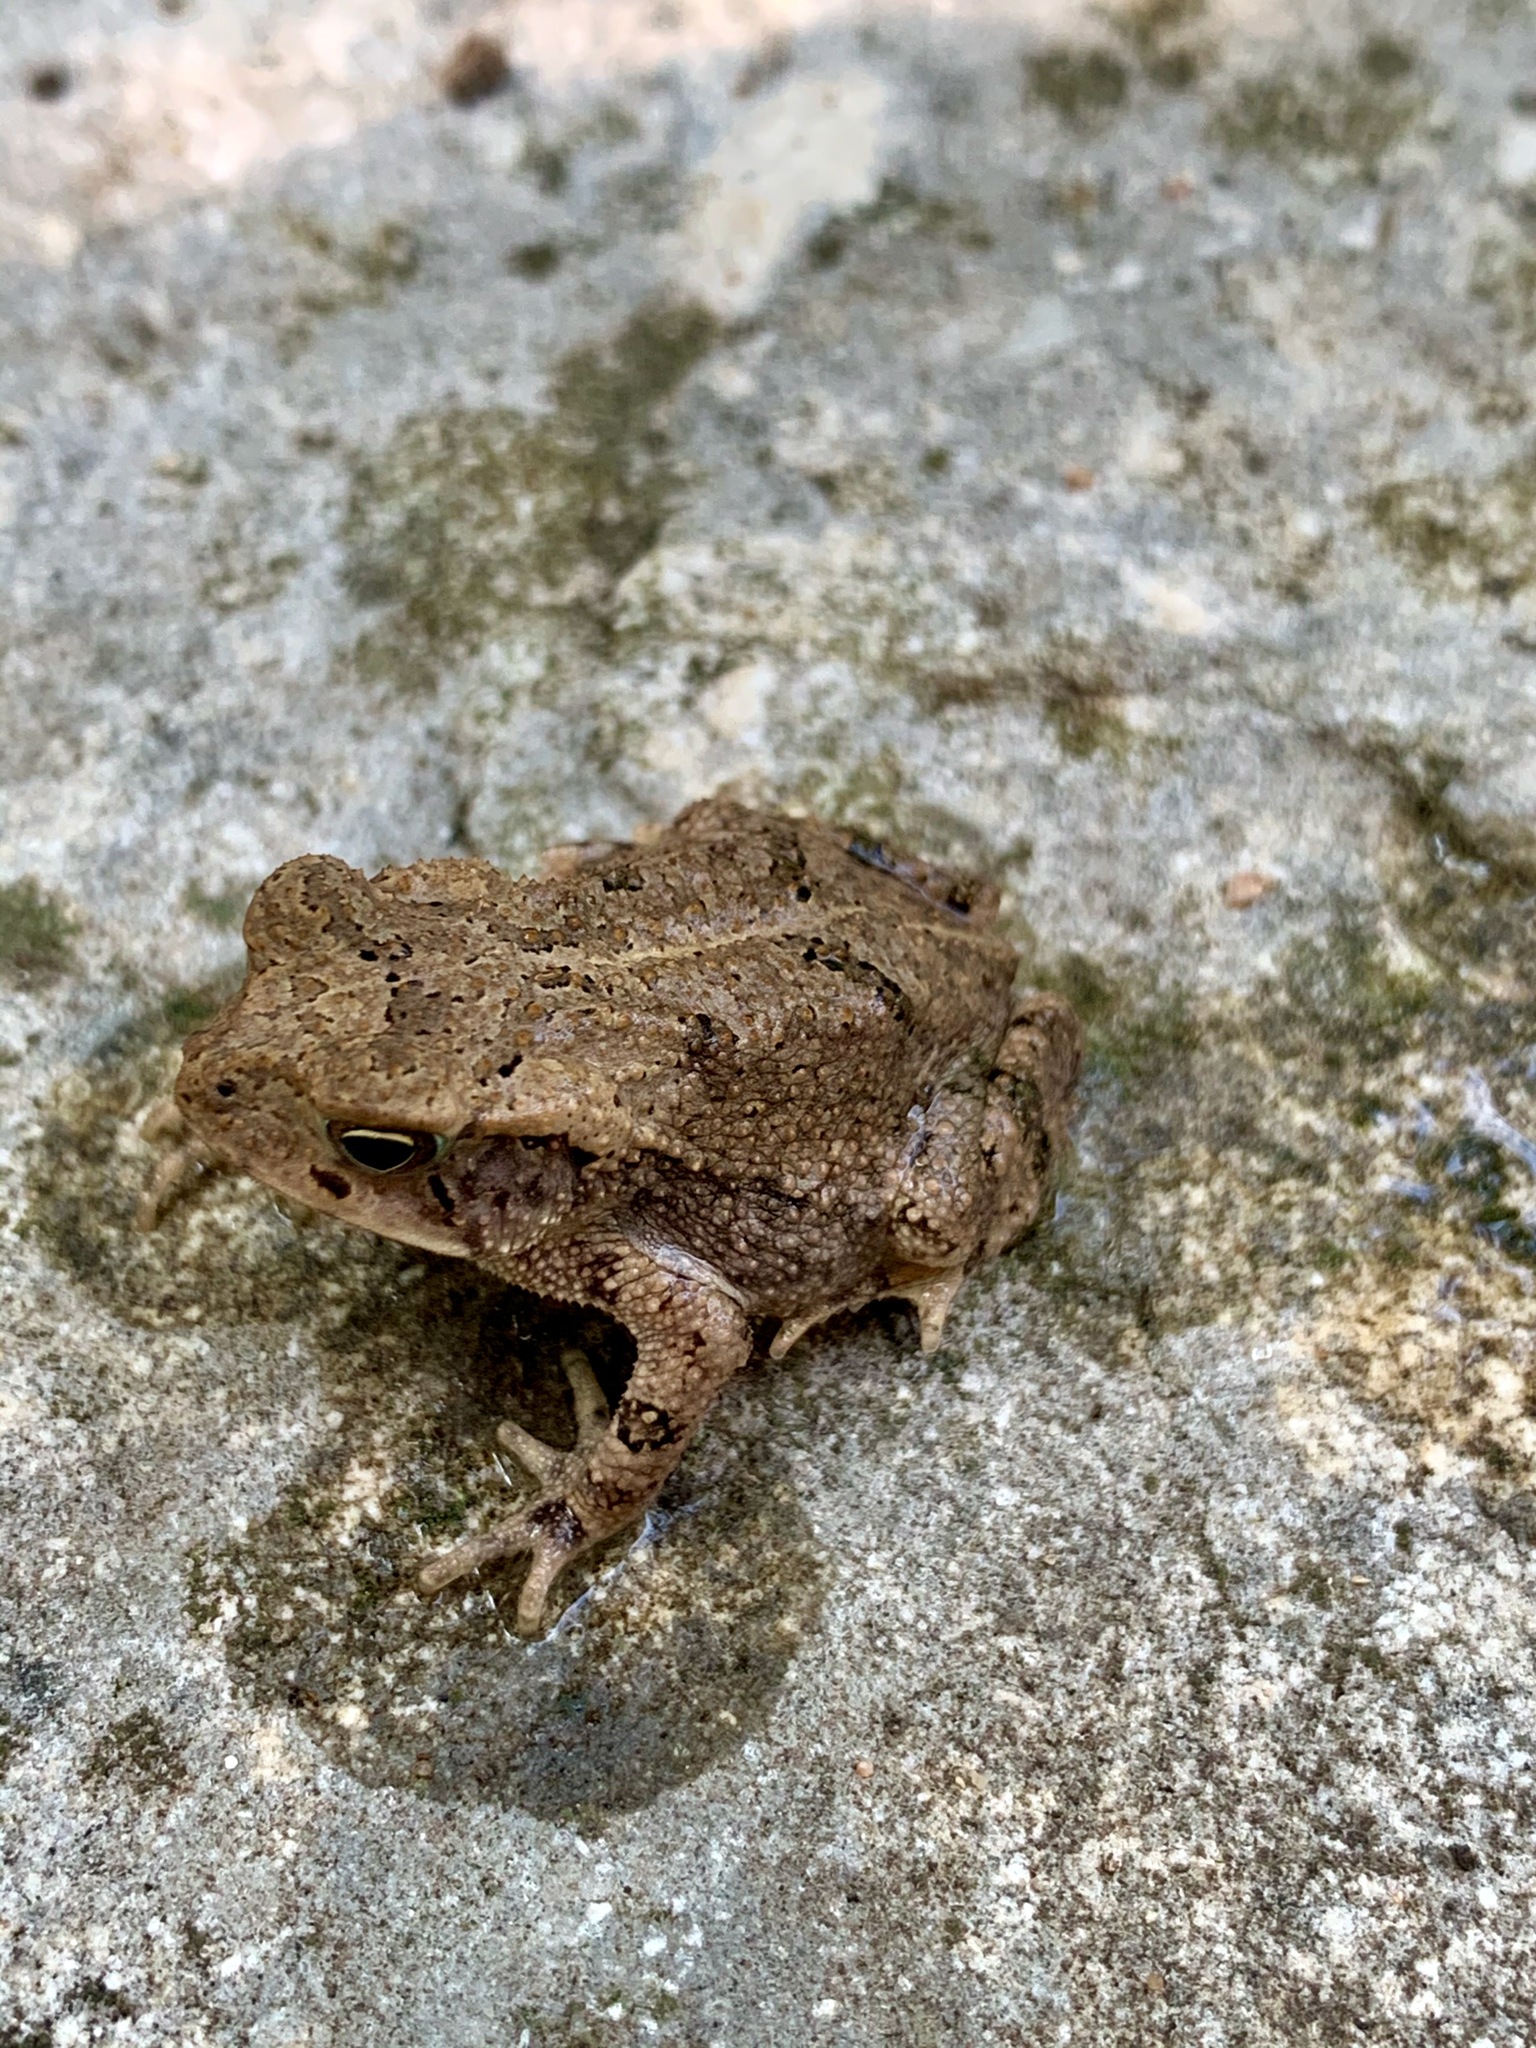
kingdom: Animalia
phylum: Chordata
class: Amphibia
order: Anura
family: Bufonidae
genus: Incilius
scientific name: Incilius nebulifer
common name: Gulf coast toad
